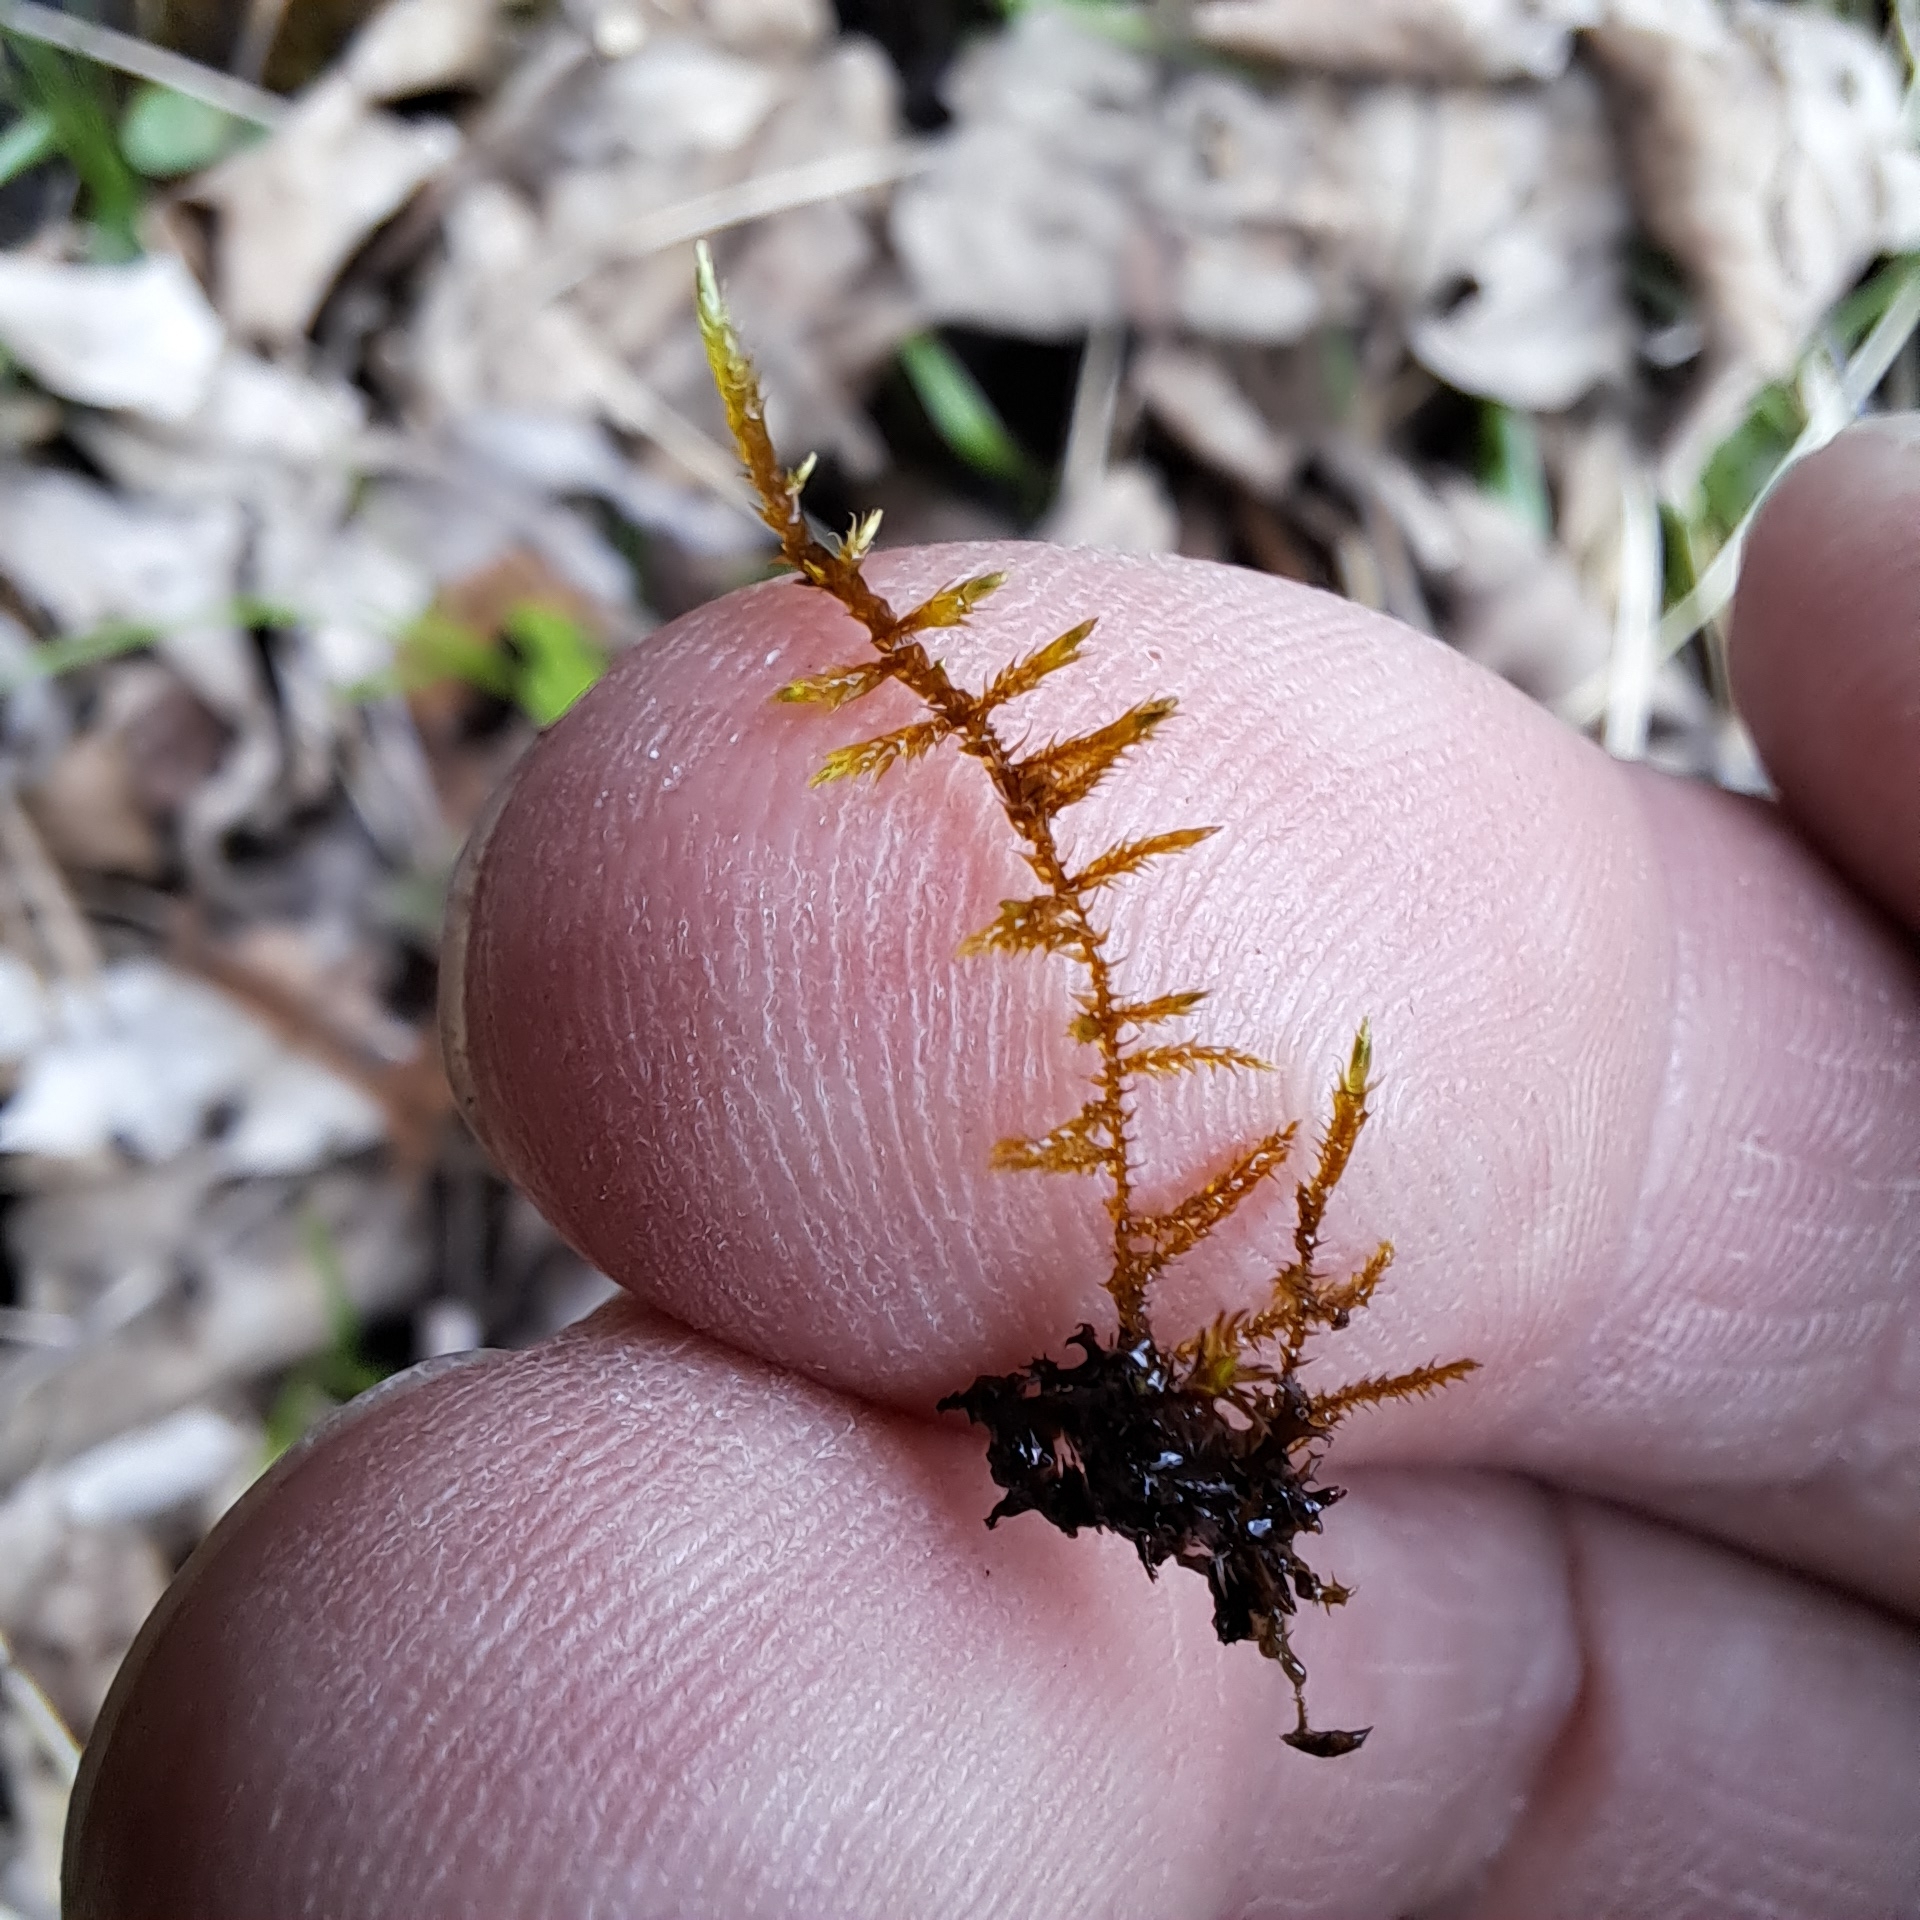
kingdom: Plantae
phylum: Bryophyta
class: Bryopsida
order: Hypnales
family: Pylaisiaceae
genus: Calliergonella
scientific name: Calliergonella cuspidata
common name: Common large wetland moss
